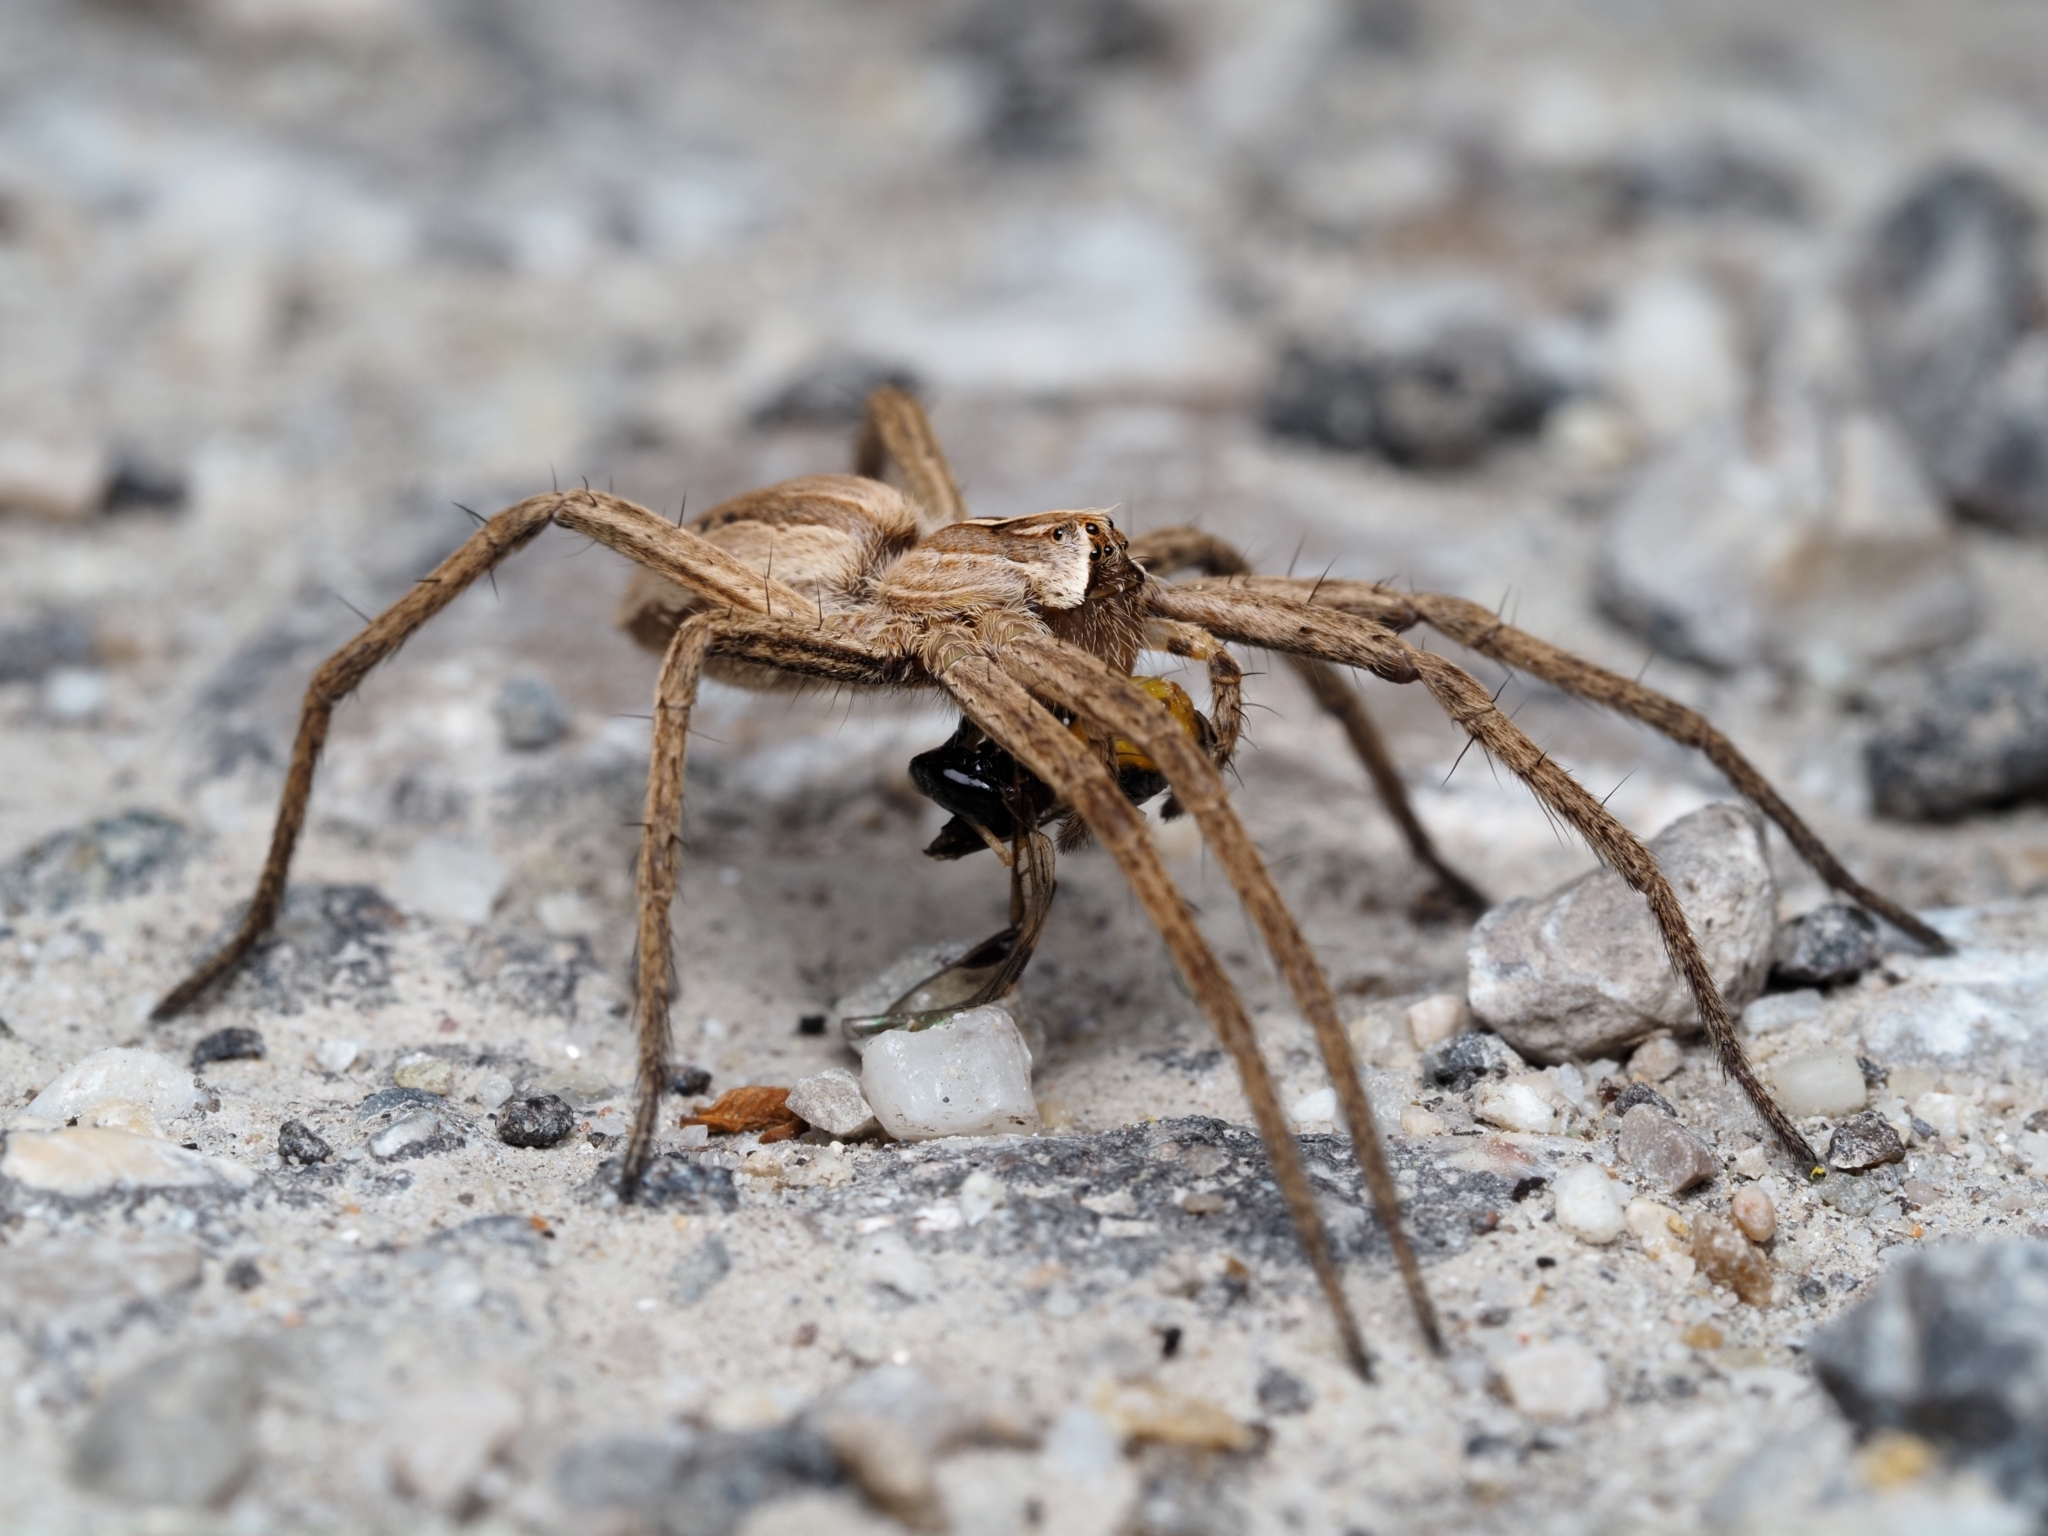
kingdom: Animalia
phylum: Arthropoda
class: Arachnida
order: Araneae
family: Pisauridae
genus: Pisaura
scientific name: Pisaura mirabilis
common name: Tent spider
